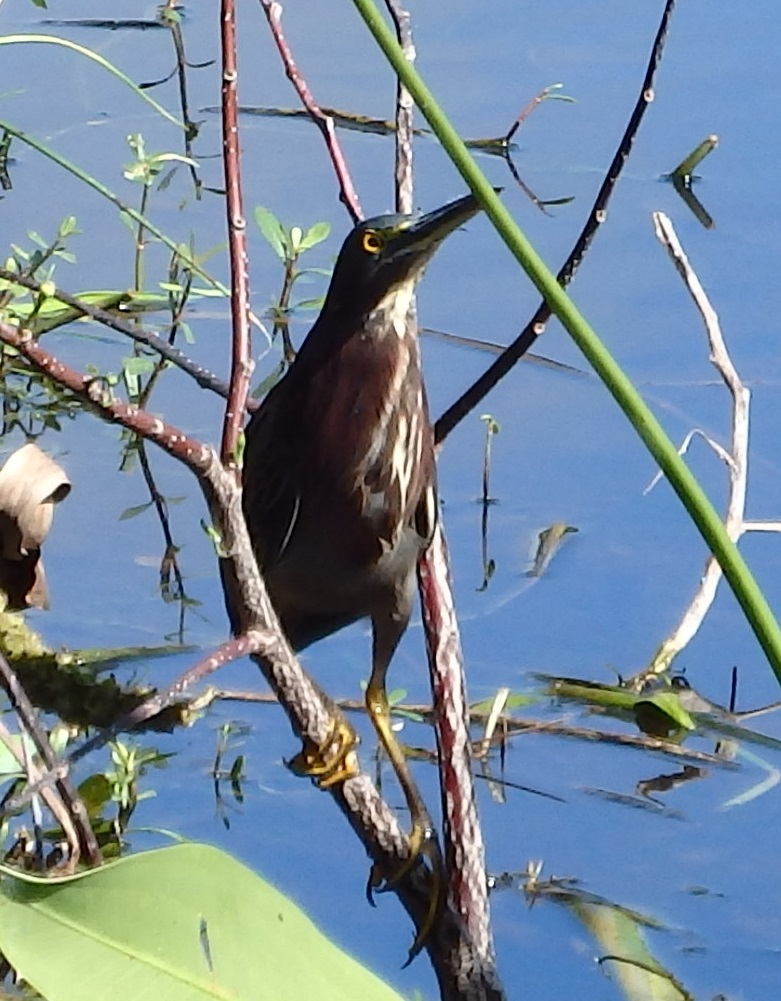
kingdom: Animalia
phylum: Chordata
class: Aves
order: Pelecaniformes
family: Ardeidae
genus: Butorides
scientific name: Butorides virescens
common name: Green heron
